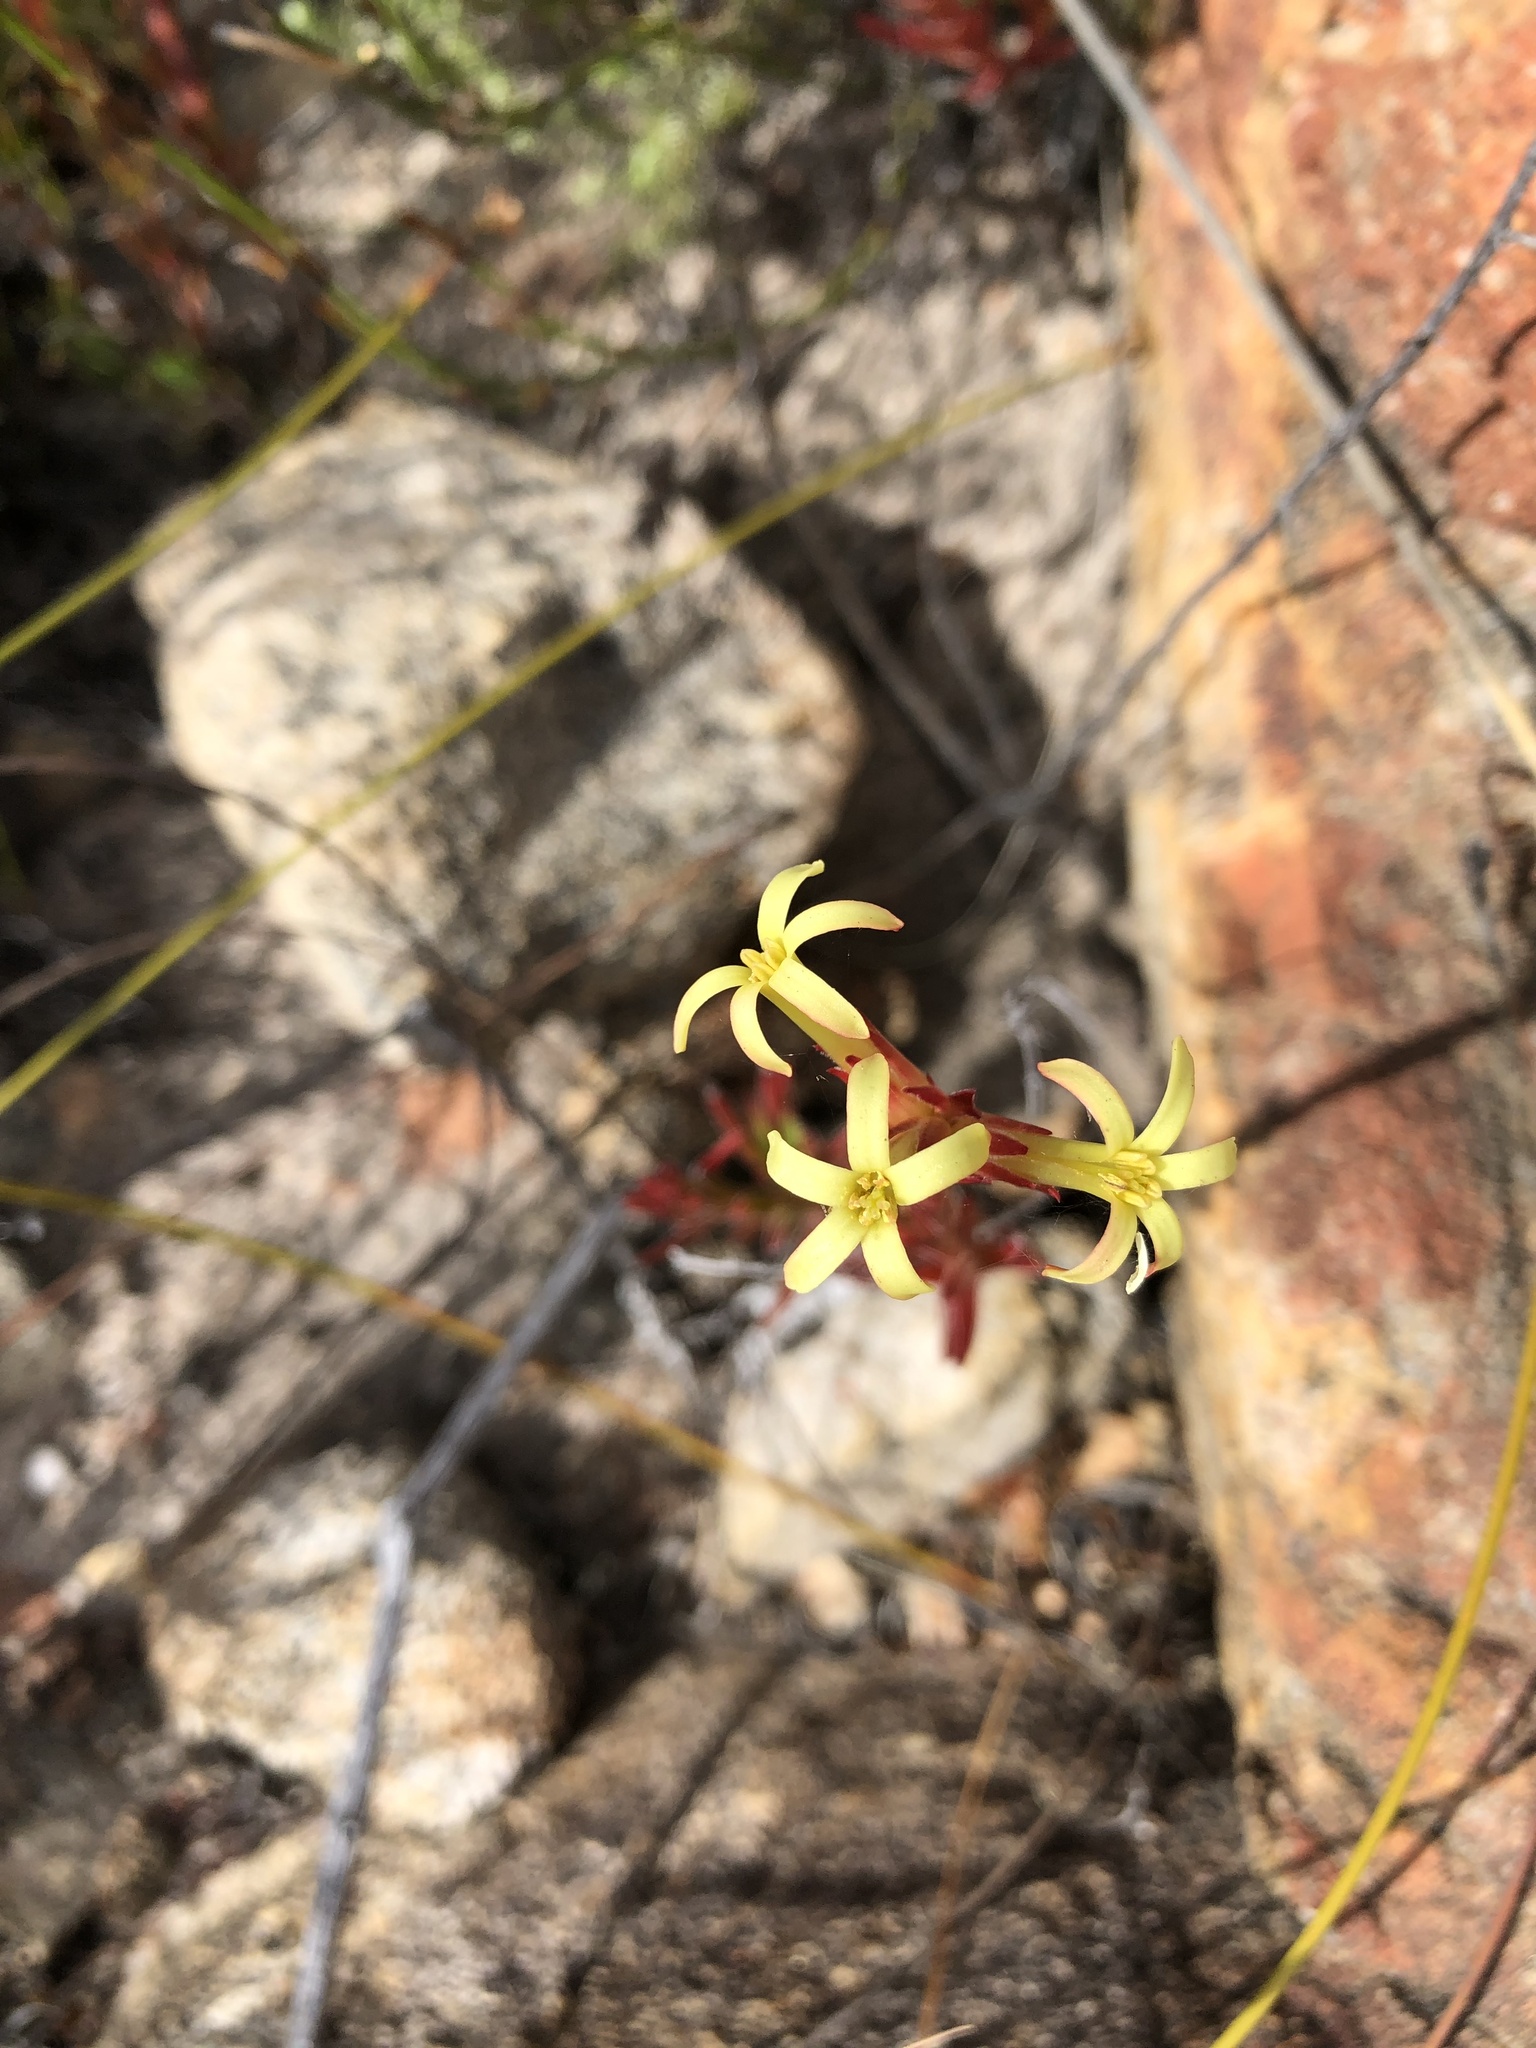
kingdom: Plantae
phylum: Tracheophyta
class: Magnoliopsida
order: Saxifragales
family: Crassulaceae
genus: Crassula
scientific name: Crassula fascicularis
